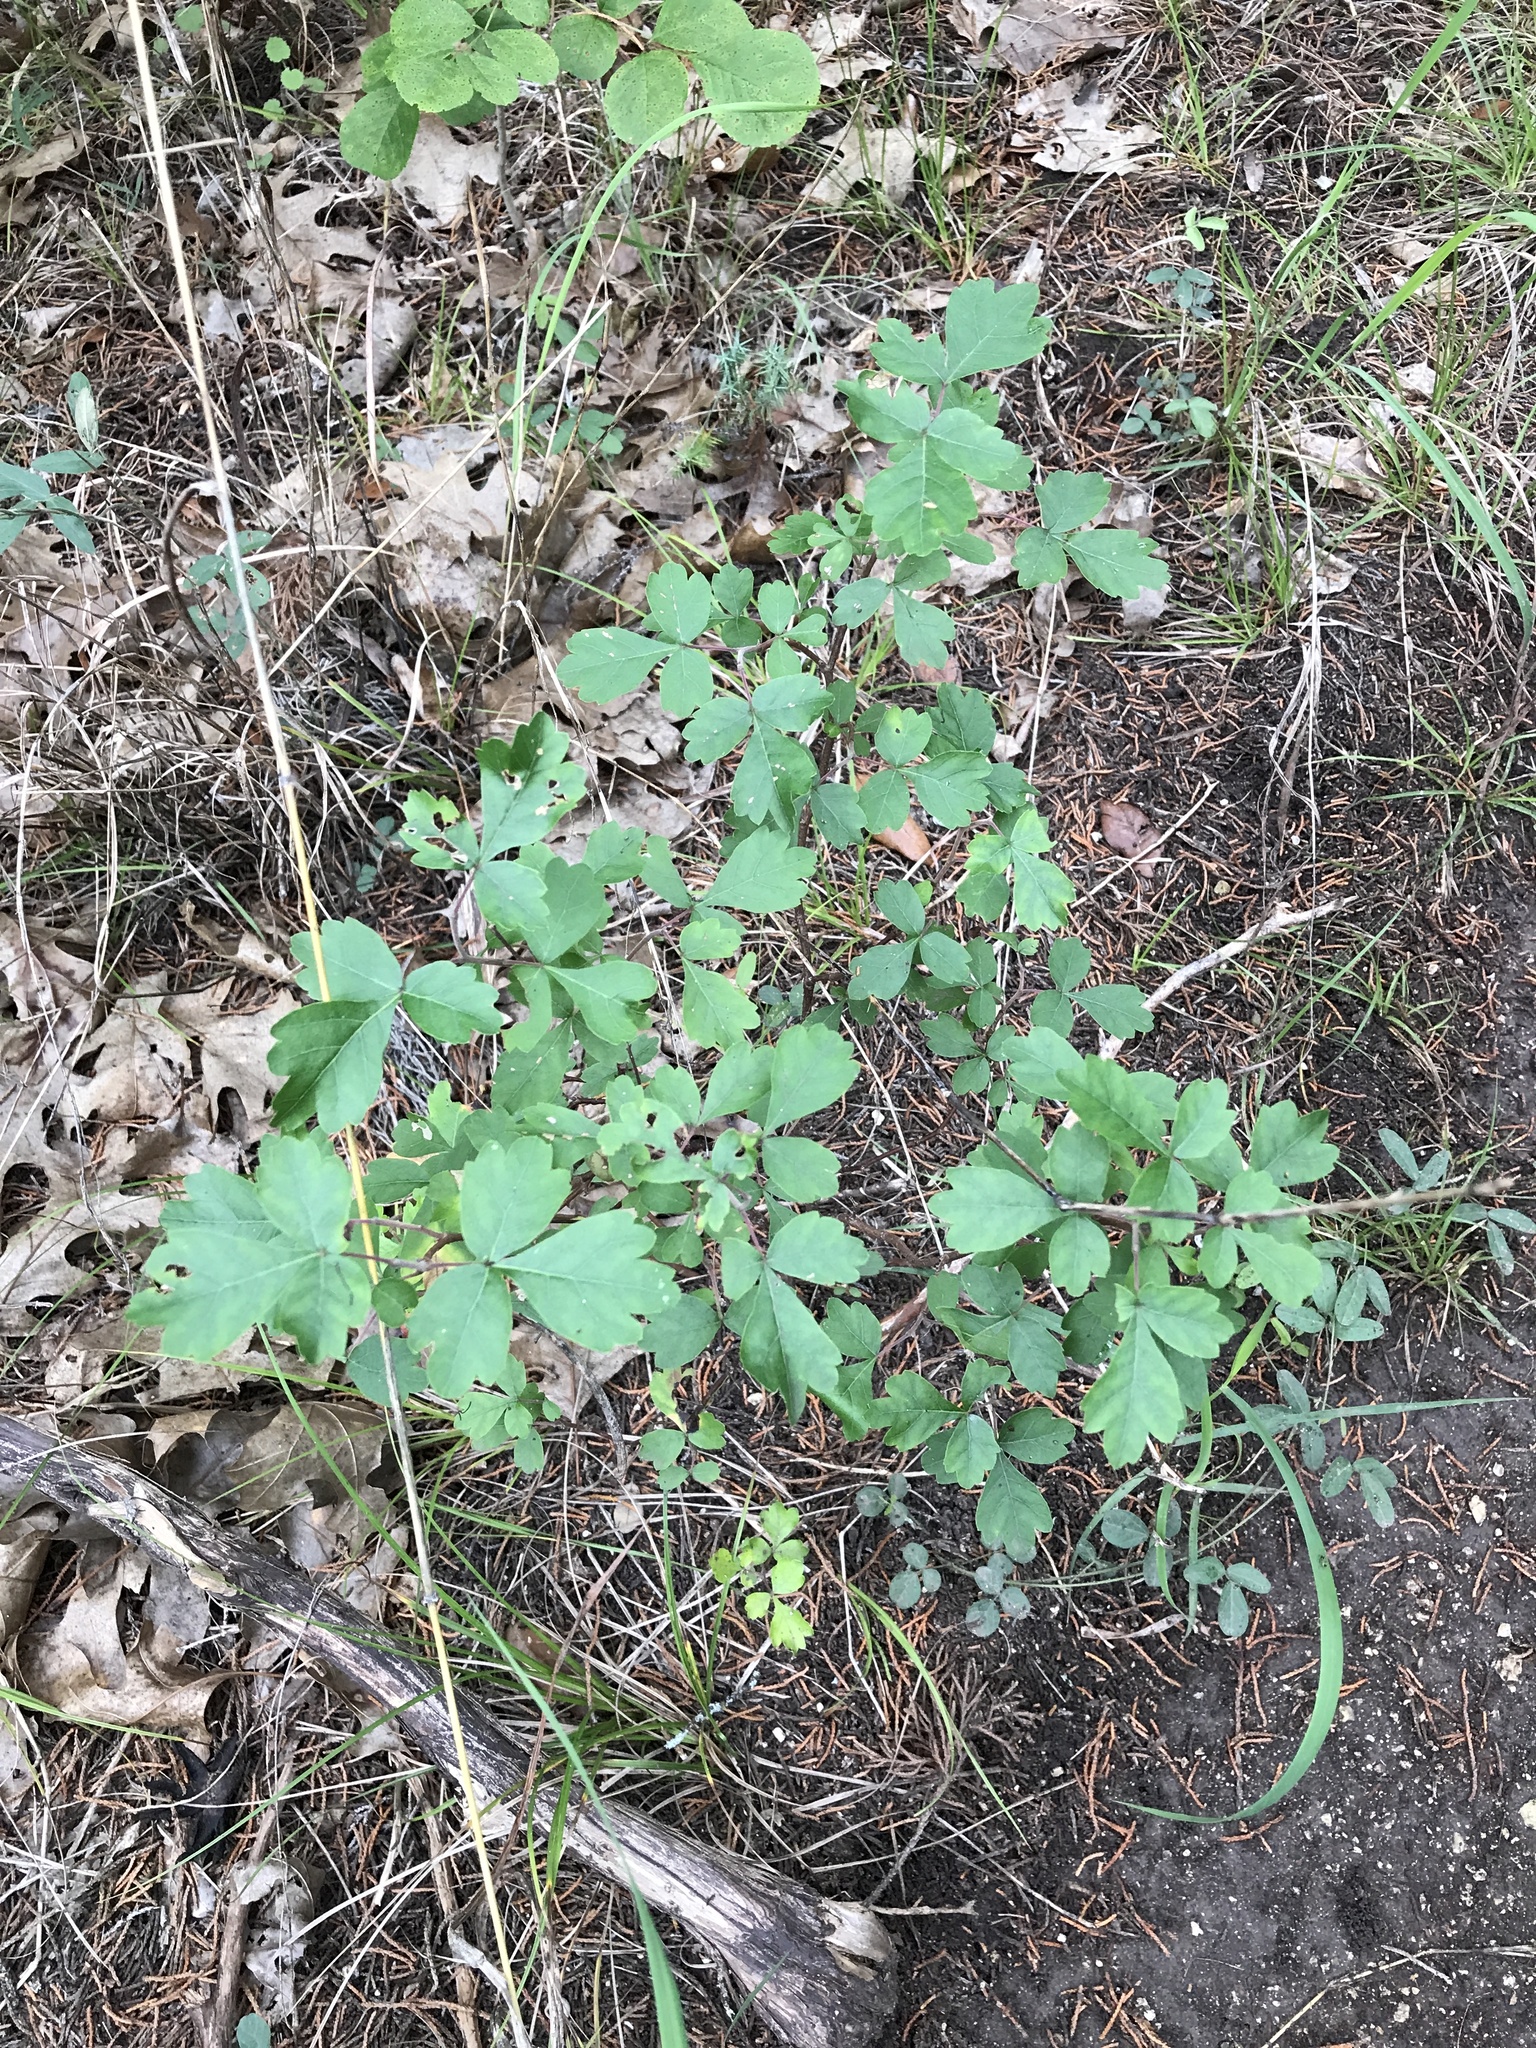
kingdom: Plantae
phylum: Tracheophyta
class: Magnoliopsida
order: Sapindales
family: Anacardiaceae
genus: Rhus
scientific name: Rhus aromatica
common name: Aromatic sumac
